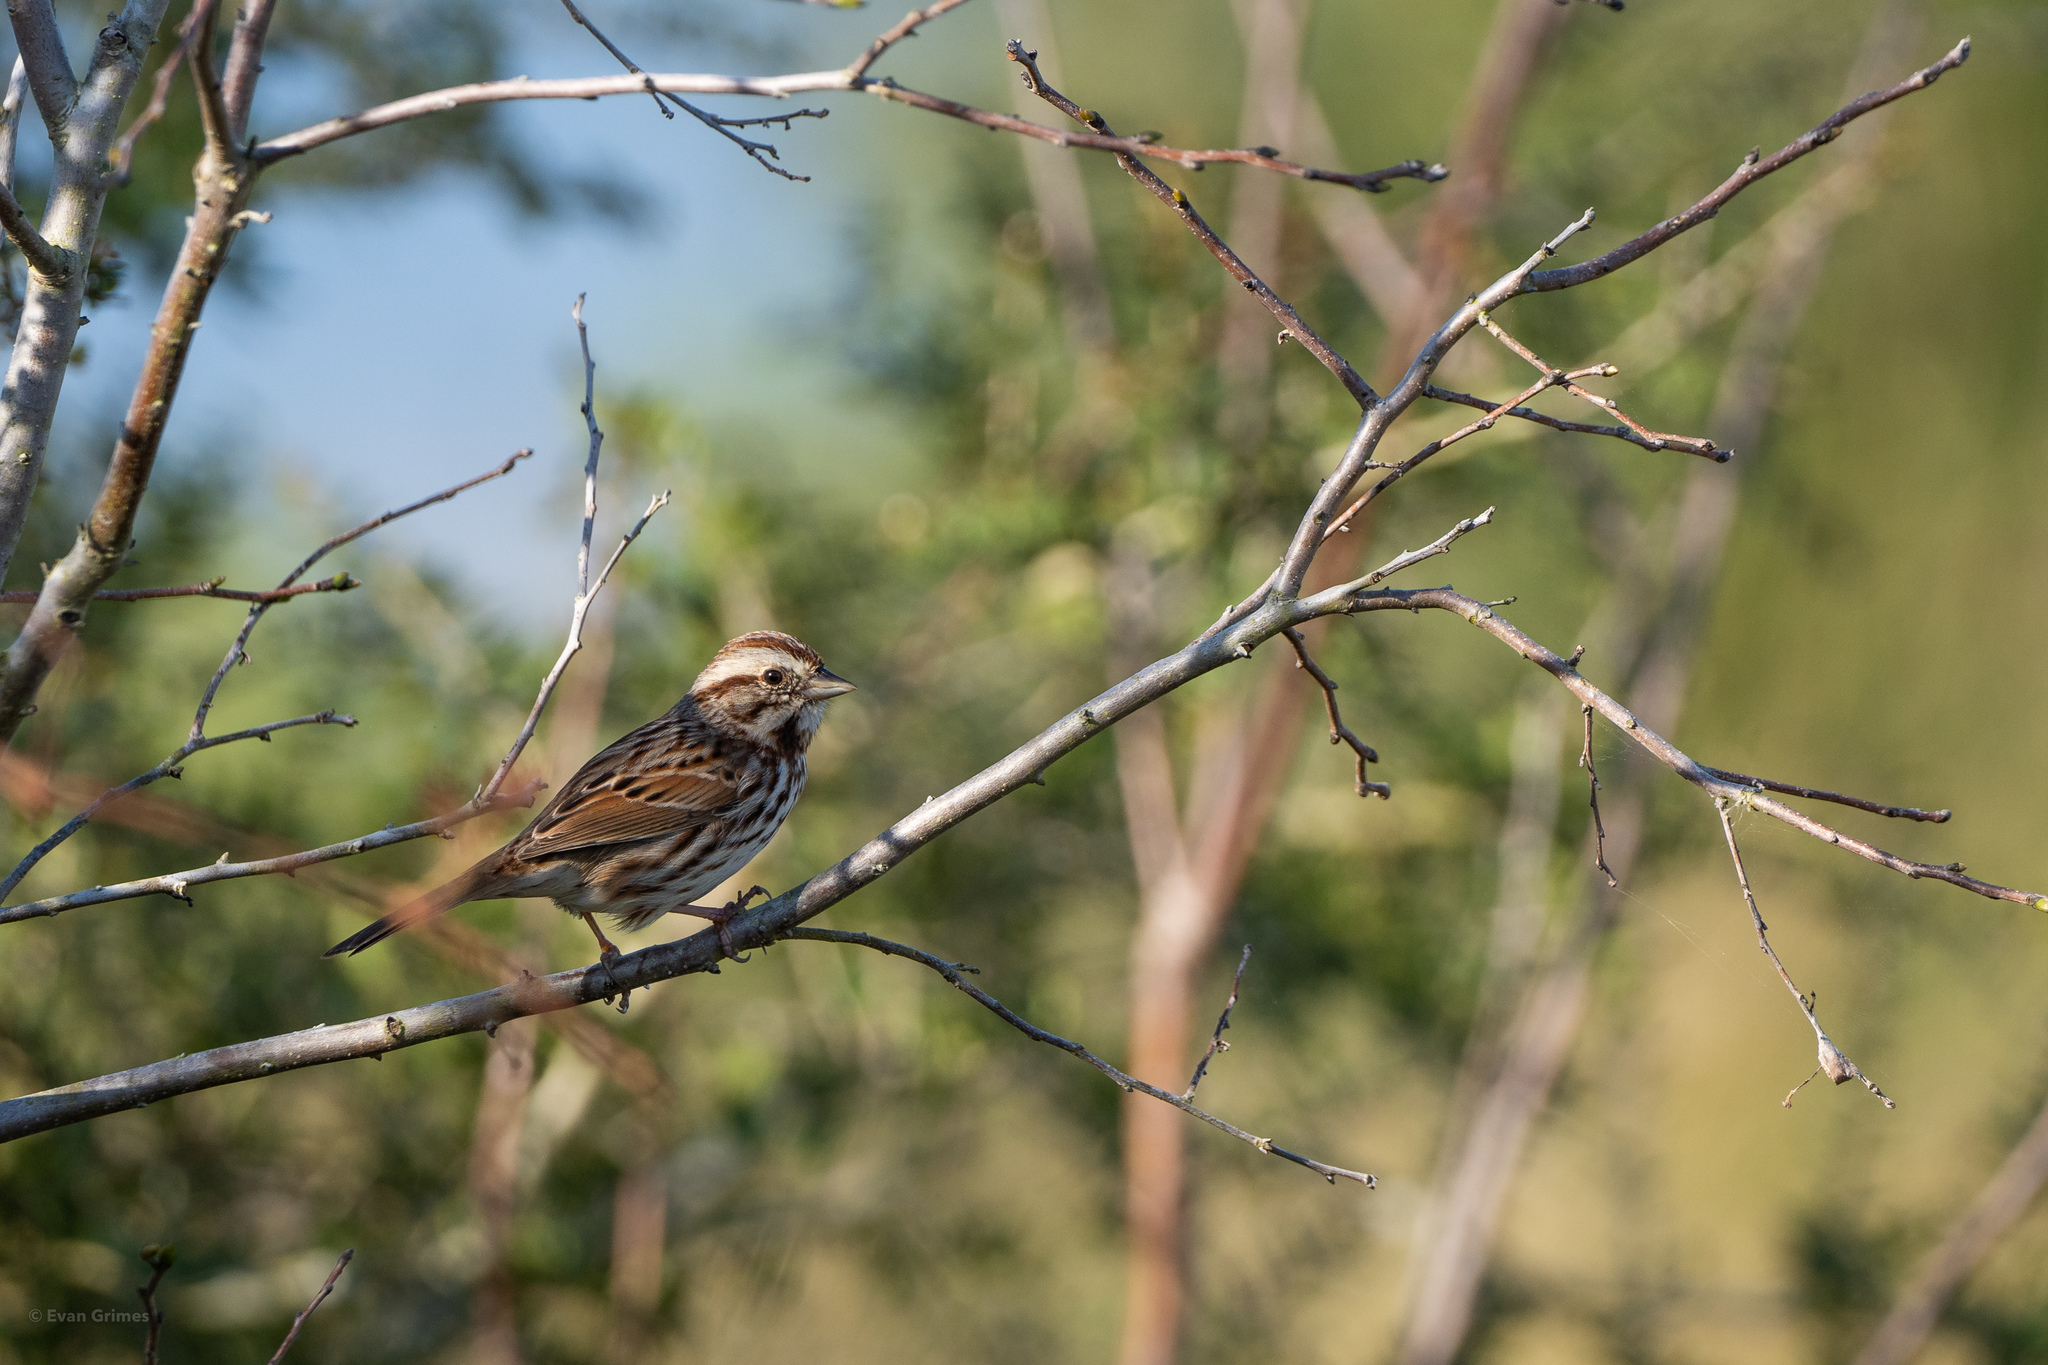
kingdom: Animalia
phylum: Chordata
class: Aves
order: Passeriformes
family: Passerellidae
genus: Melospiza
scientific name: Melospiza melodia
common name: Song sparrow
